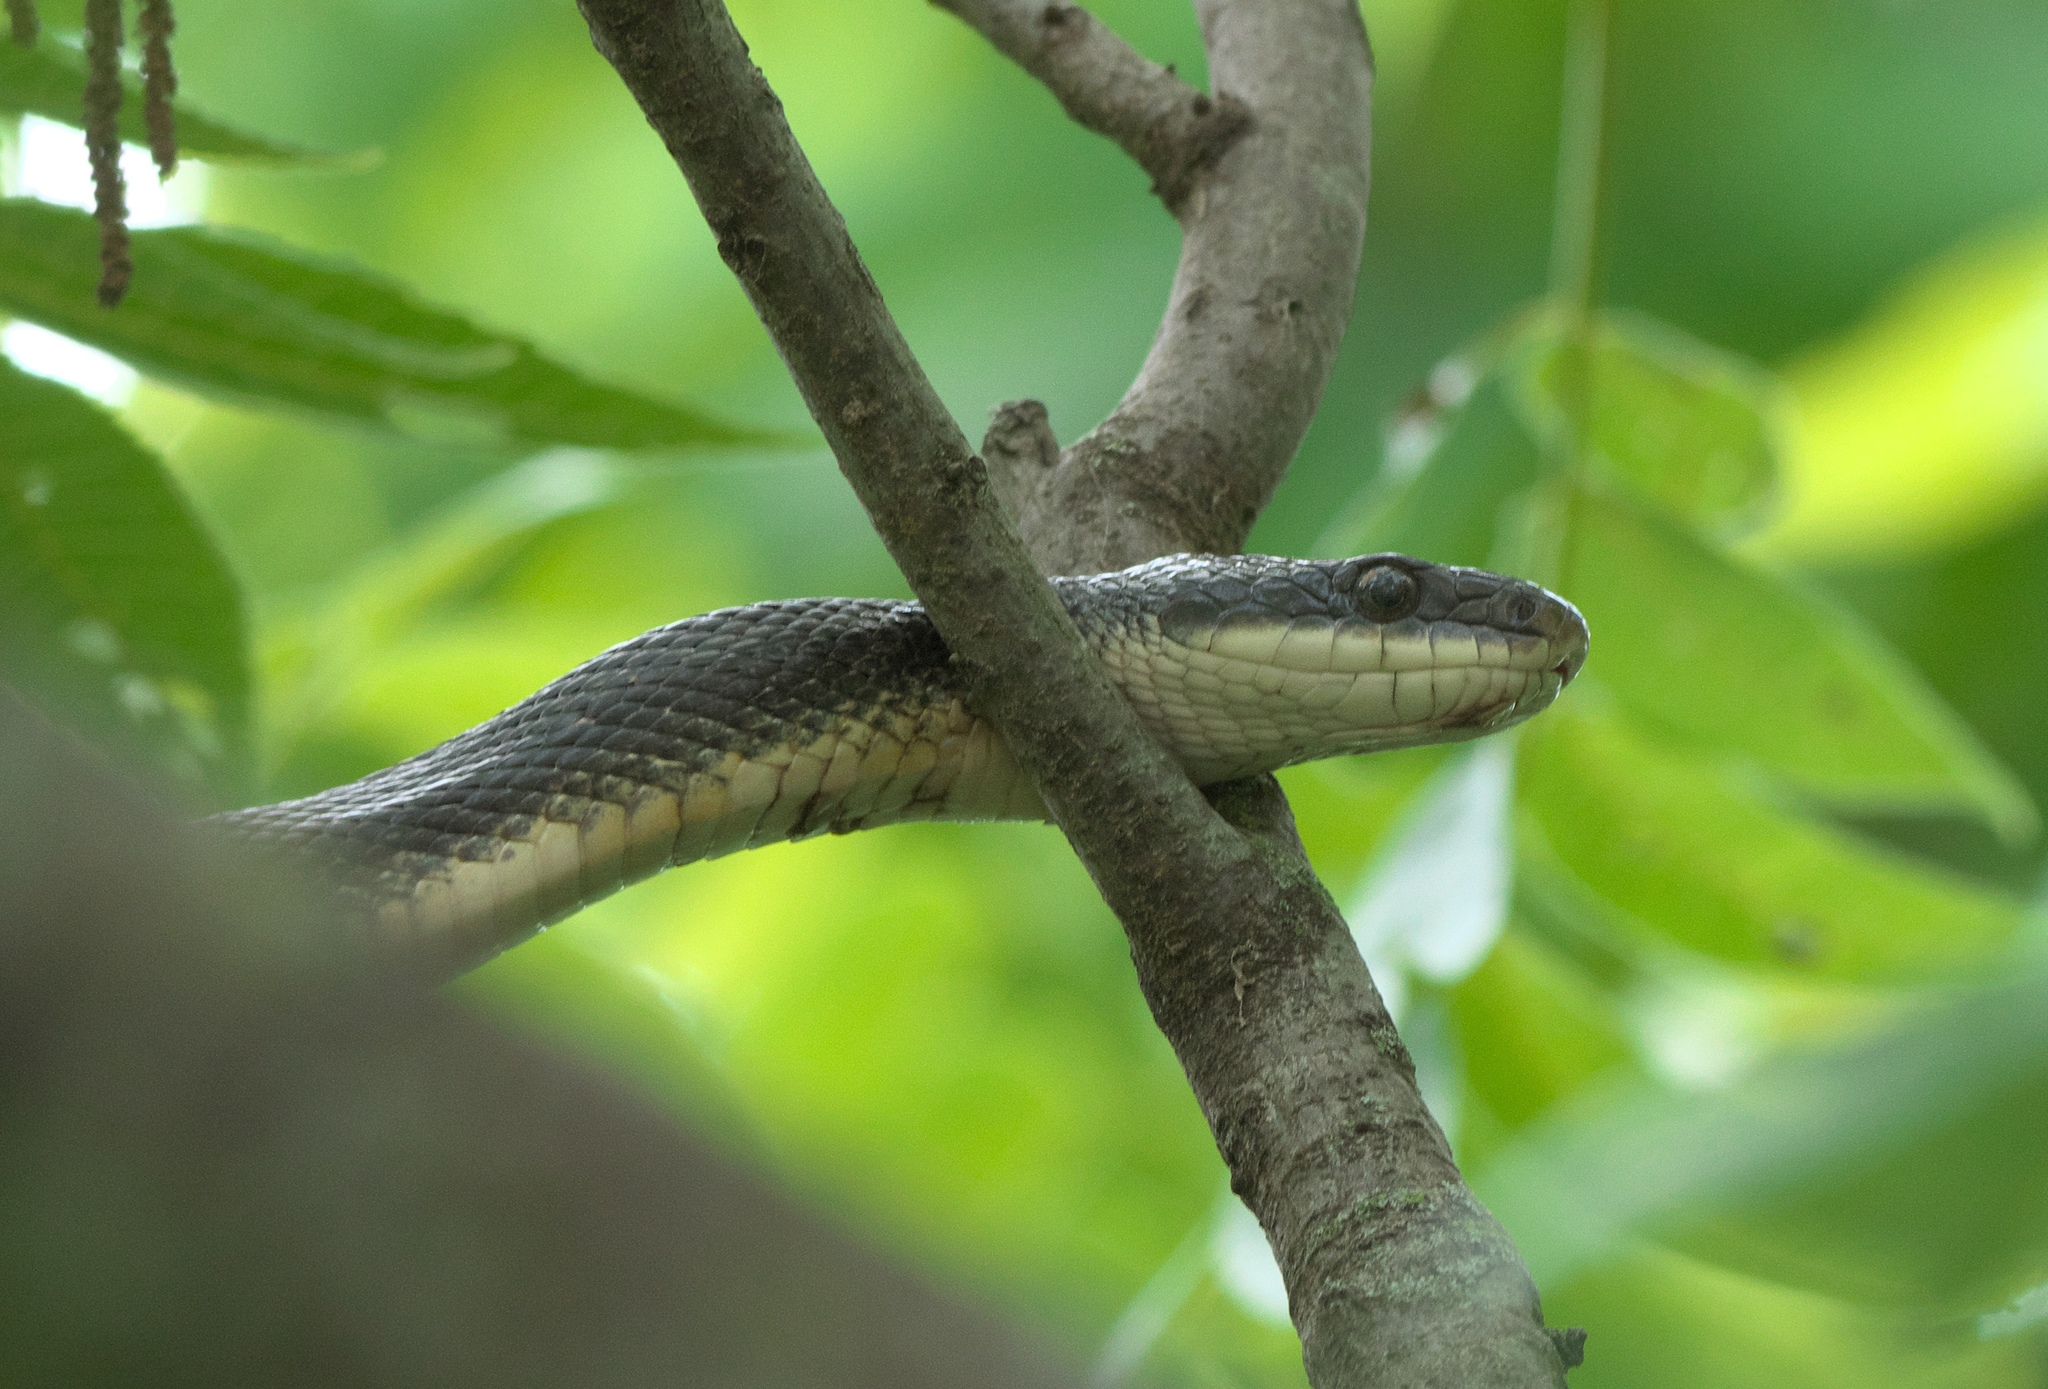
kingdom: Animalia
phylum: Chordata
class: Squamata
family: Colubridae
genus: Pantherophis
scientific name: Pantherophis obsoletus
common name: Black rat snake
